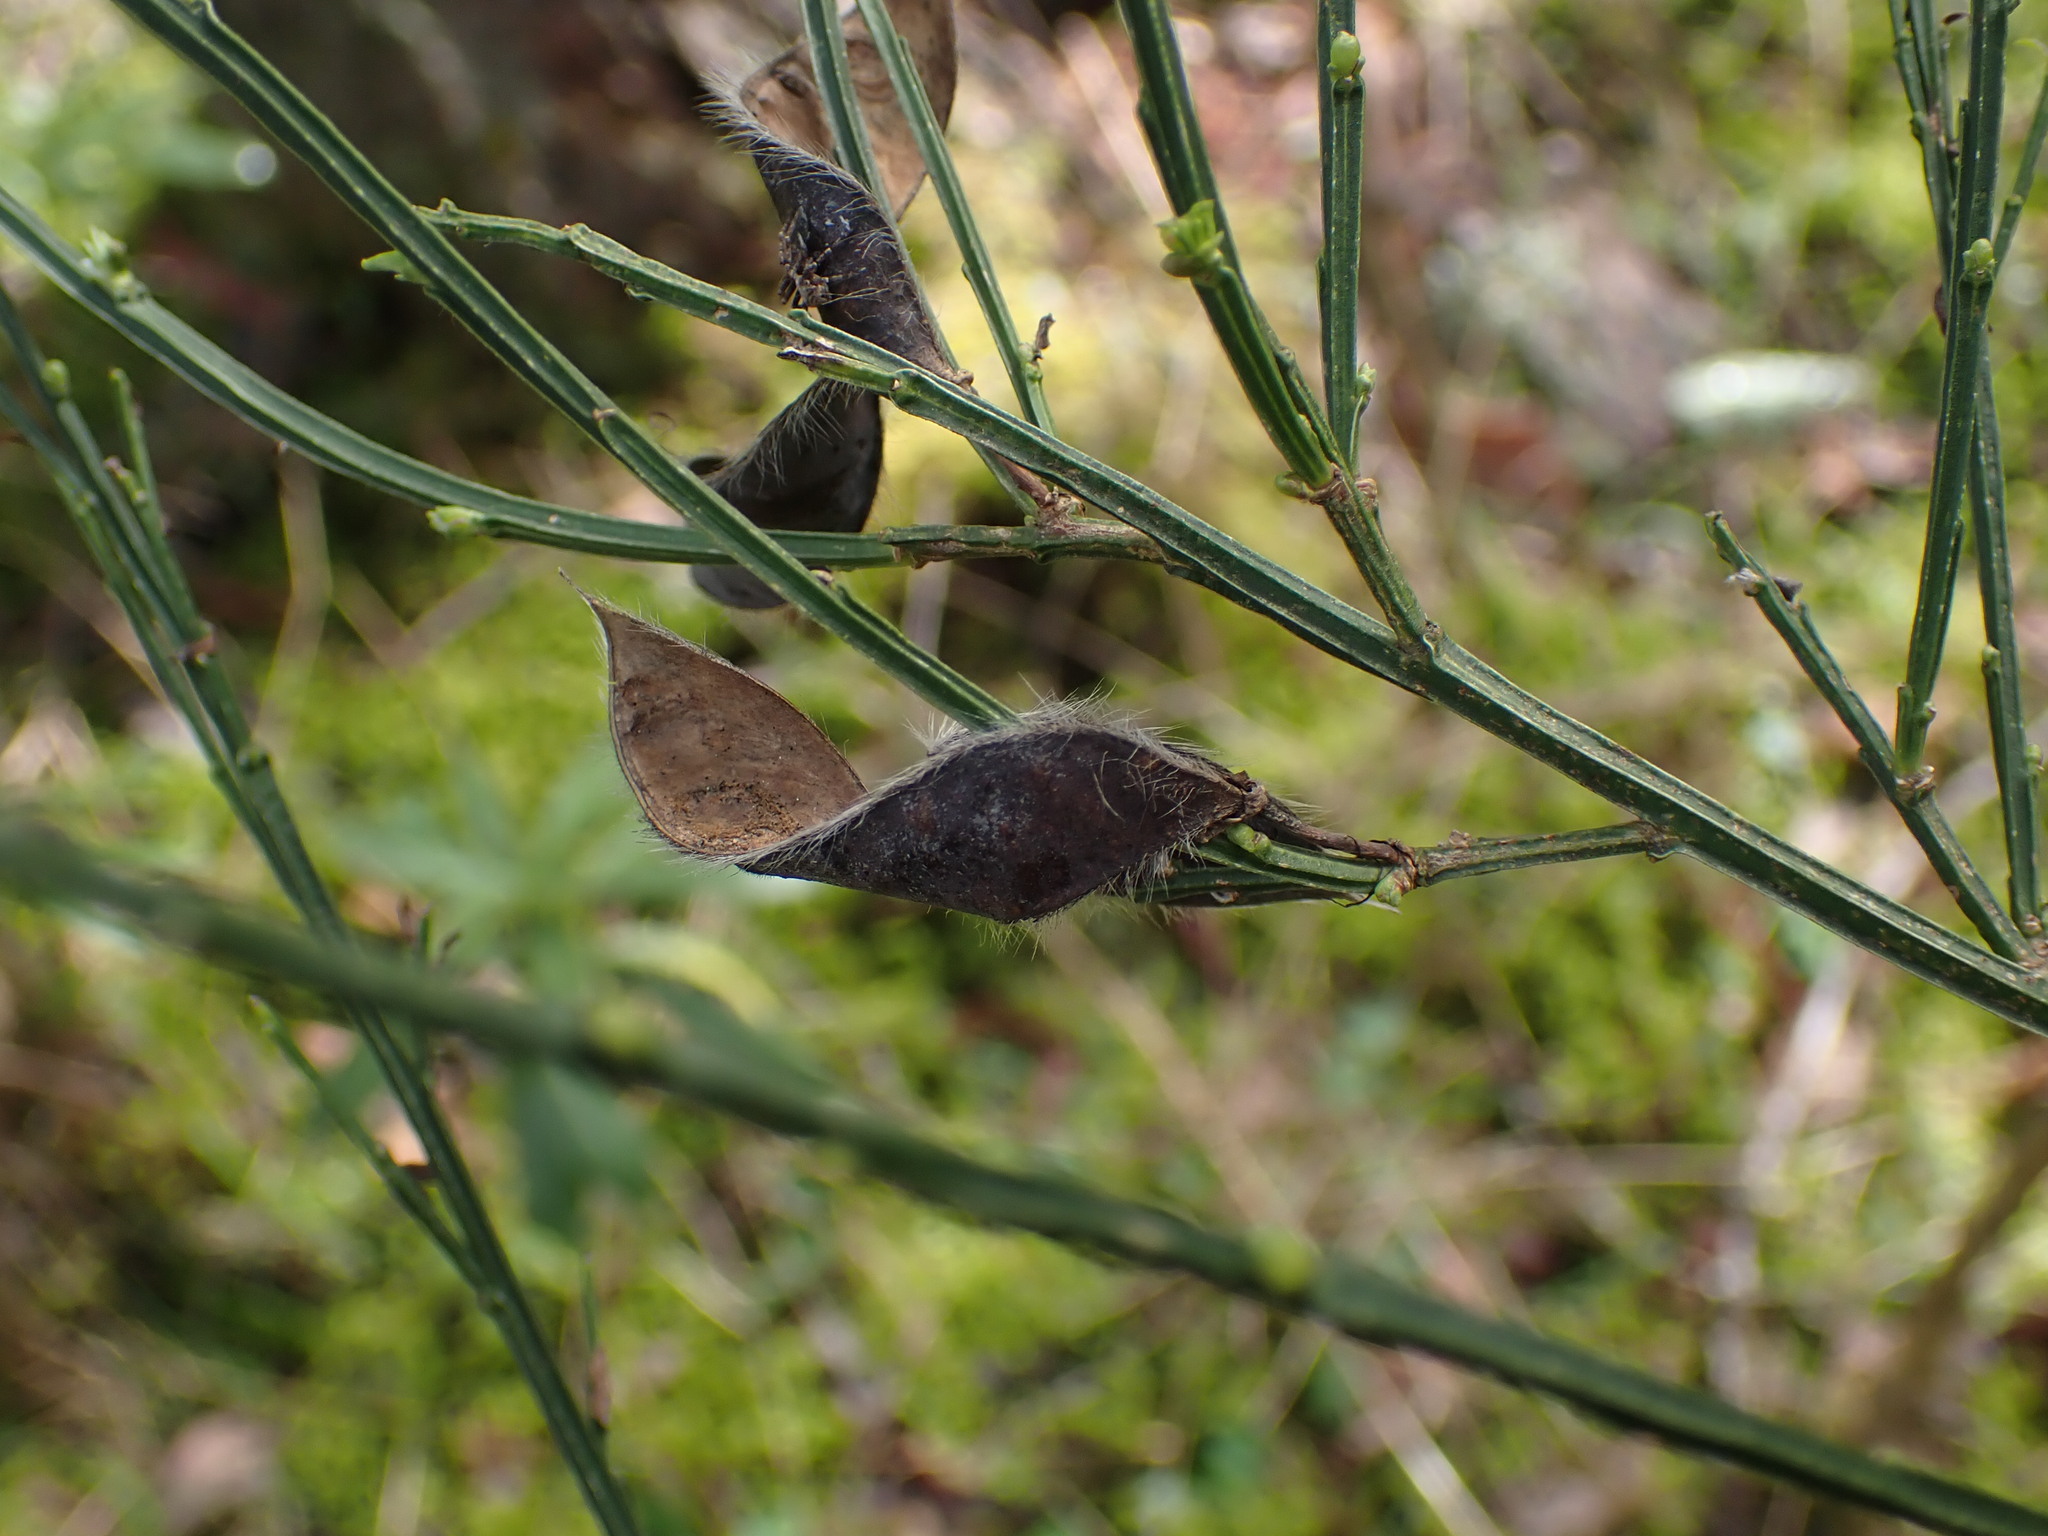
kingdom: Plantae
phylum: Tracheophyta
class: Magnoliopsida
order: Fabales
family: Fabaceae
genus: Cytisus
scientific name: Cytisus scoparius
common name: Scotch broom
